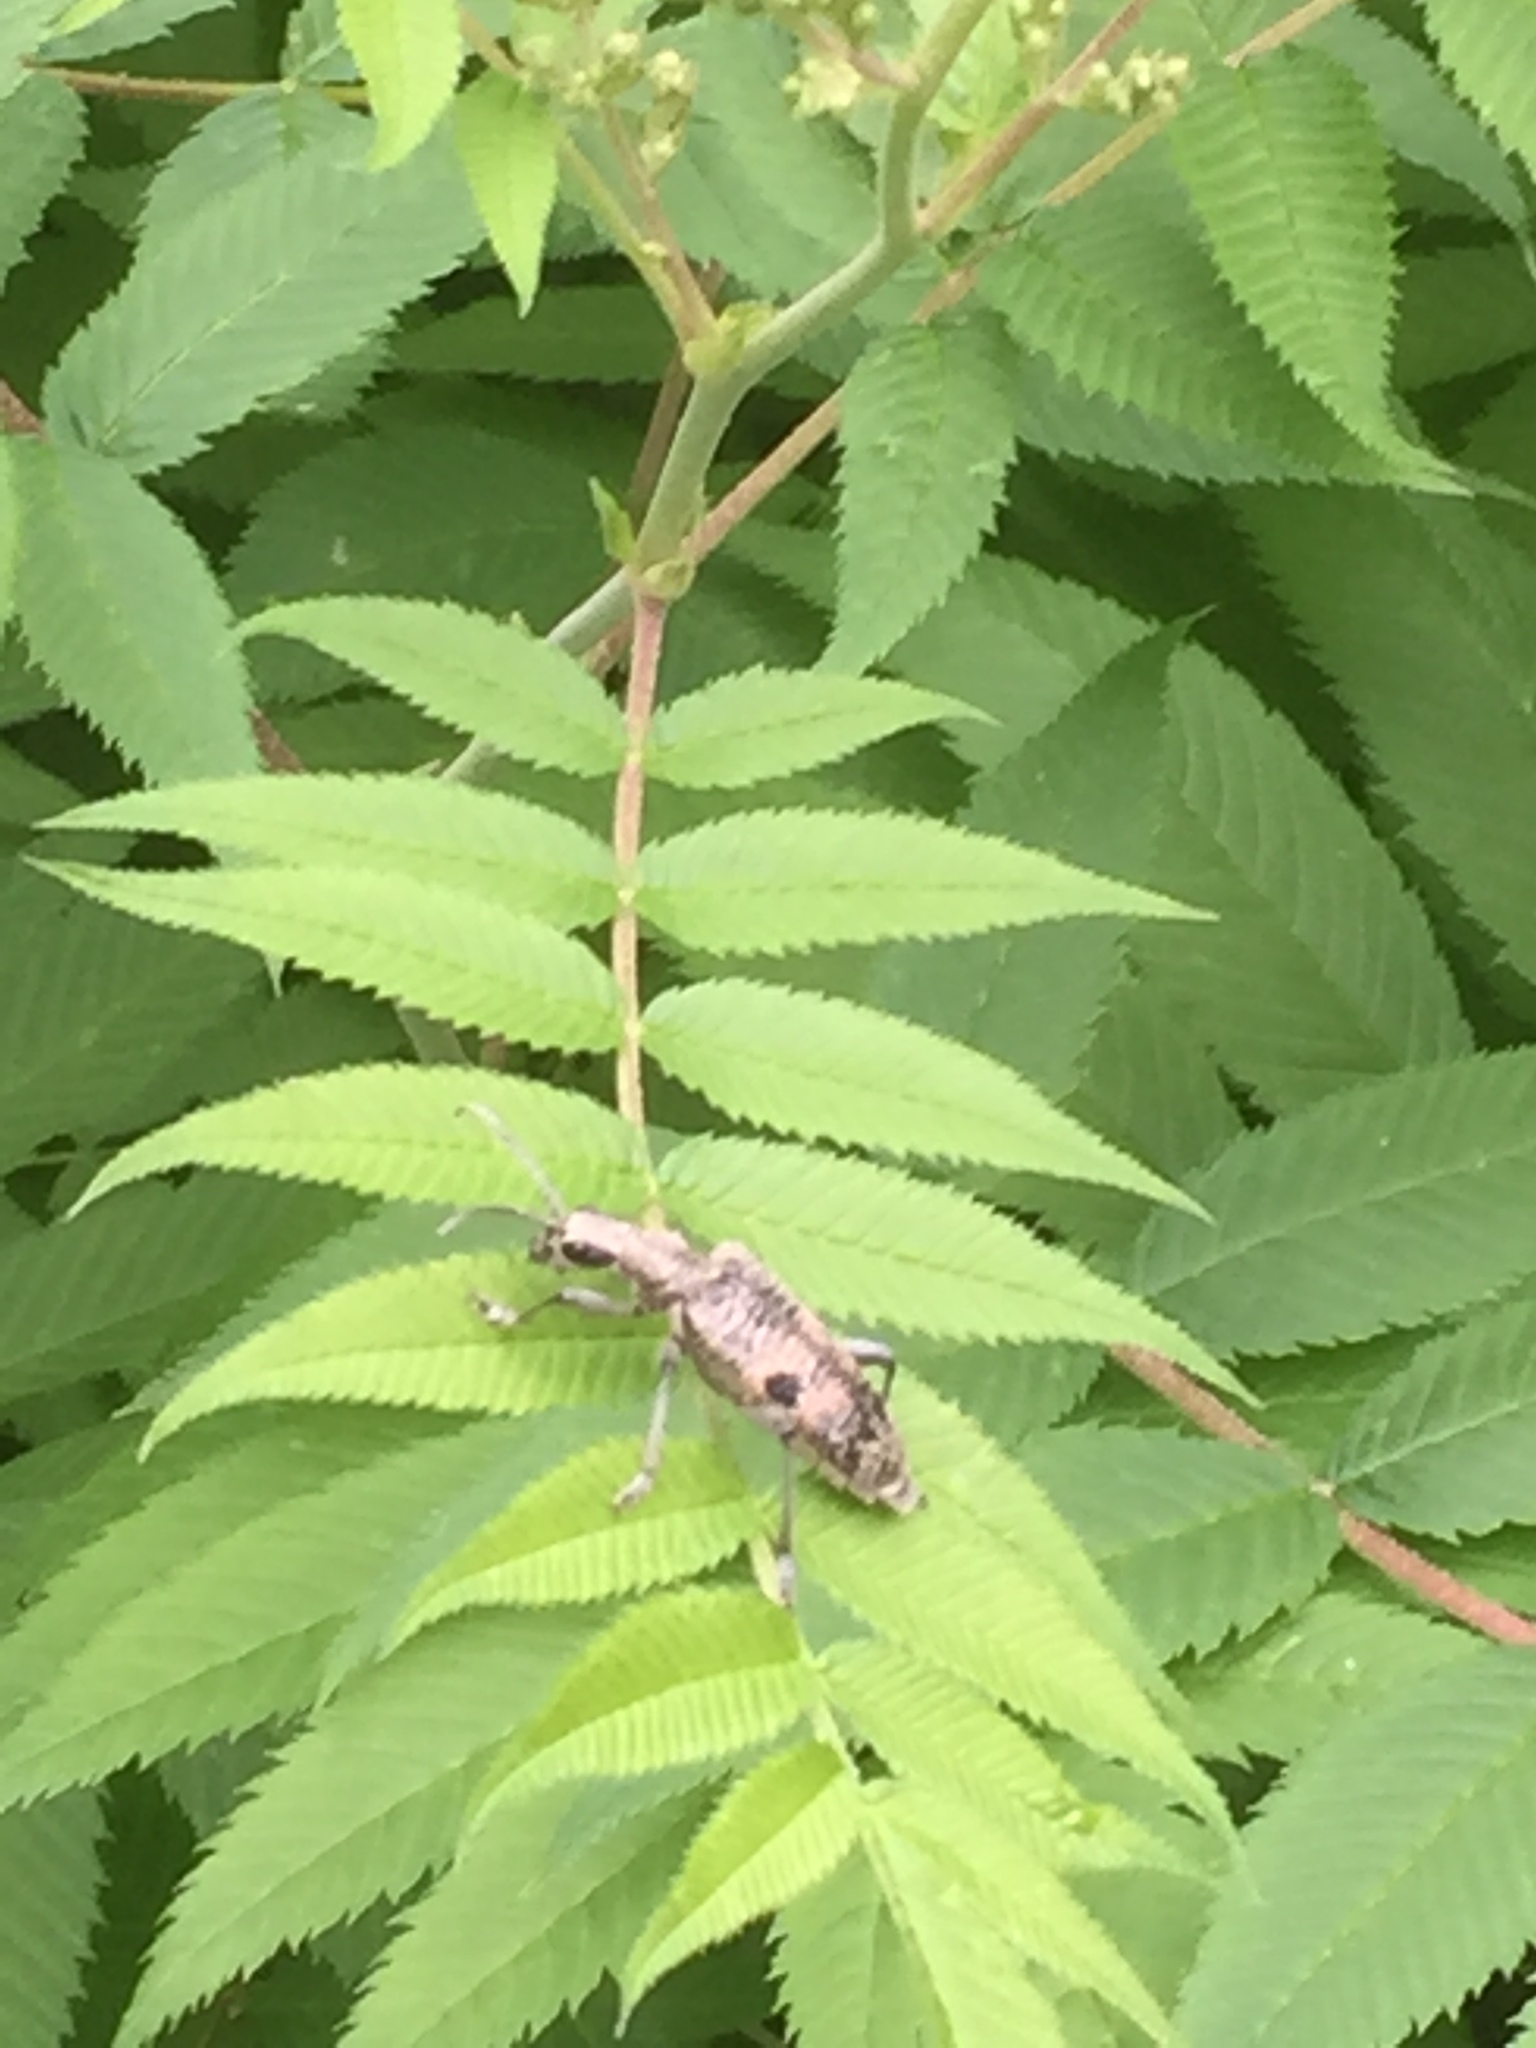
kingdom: Animalia
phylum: Arthropoda
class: Insecta
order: Coleoptera
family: Cerambycidae
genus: Rhagium
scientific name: Rhagium mordax
